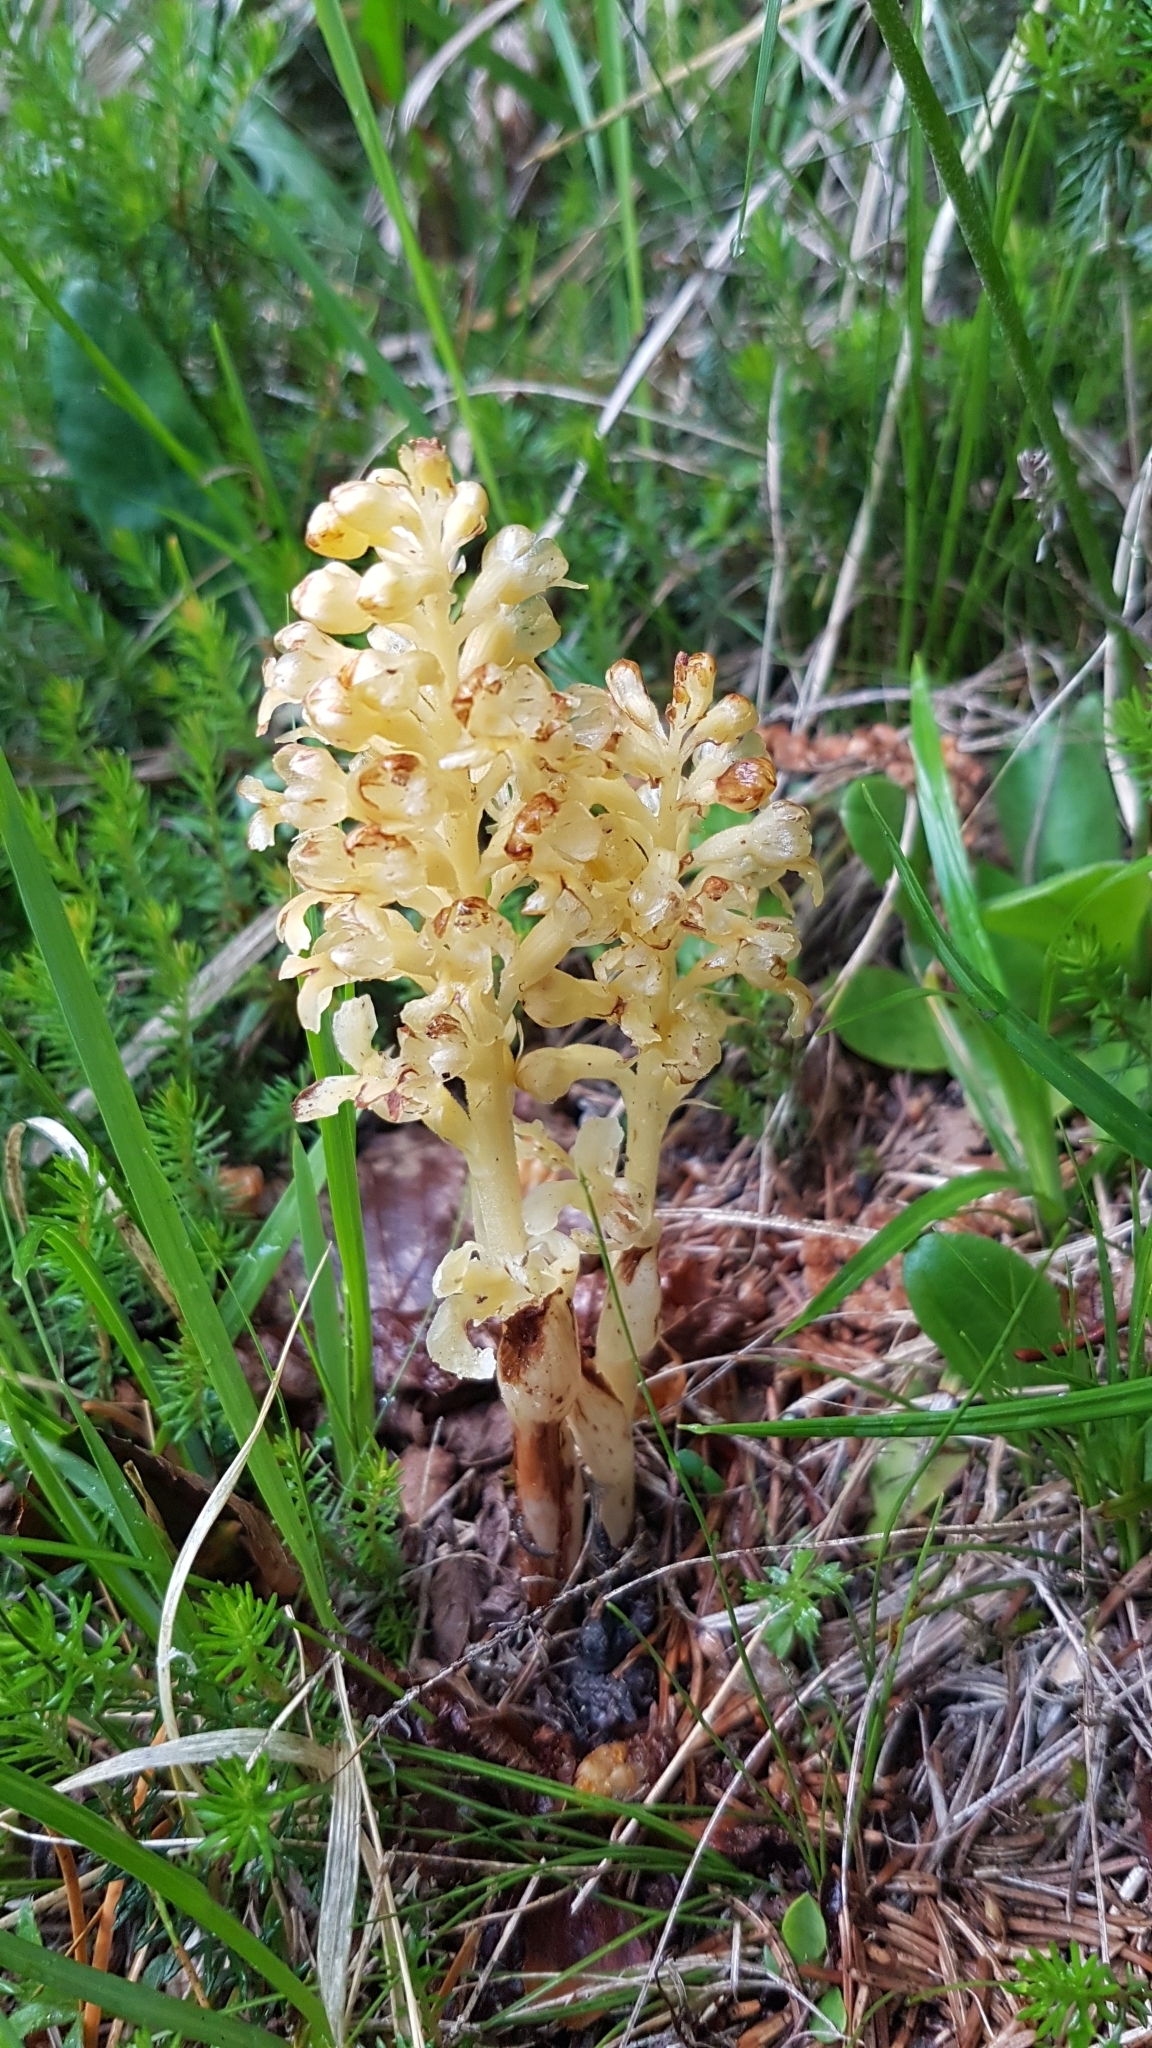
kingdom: Plantae
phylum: Tracheophyta
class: Liliopsida
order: Asparagales
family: Orchidaceae
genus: Neottia
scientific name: Neottia nidus-avis
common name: Bird's-nest orchid
